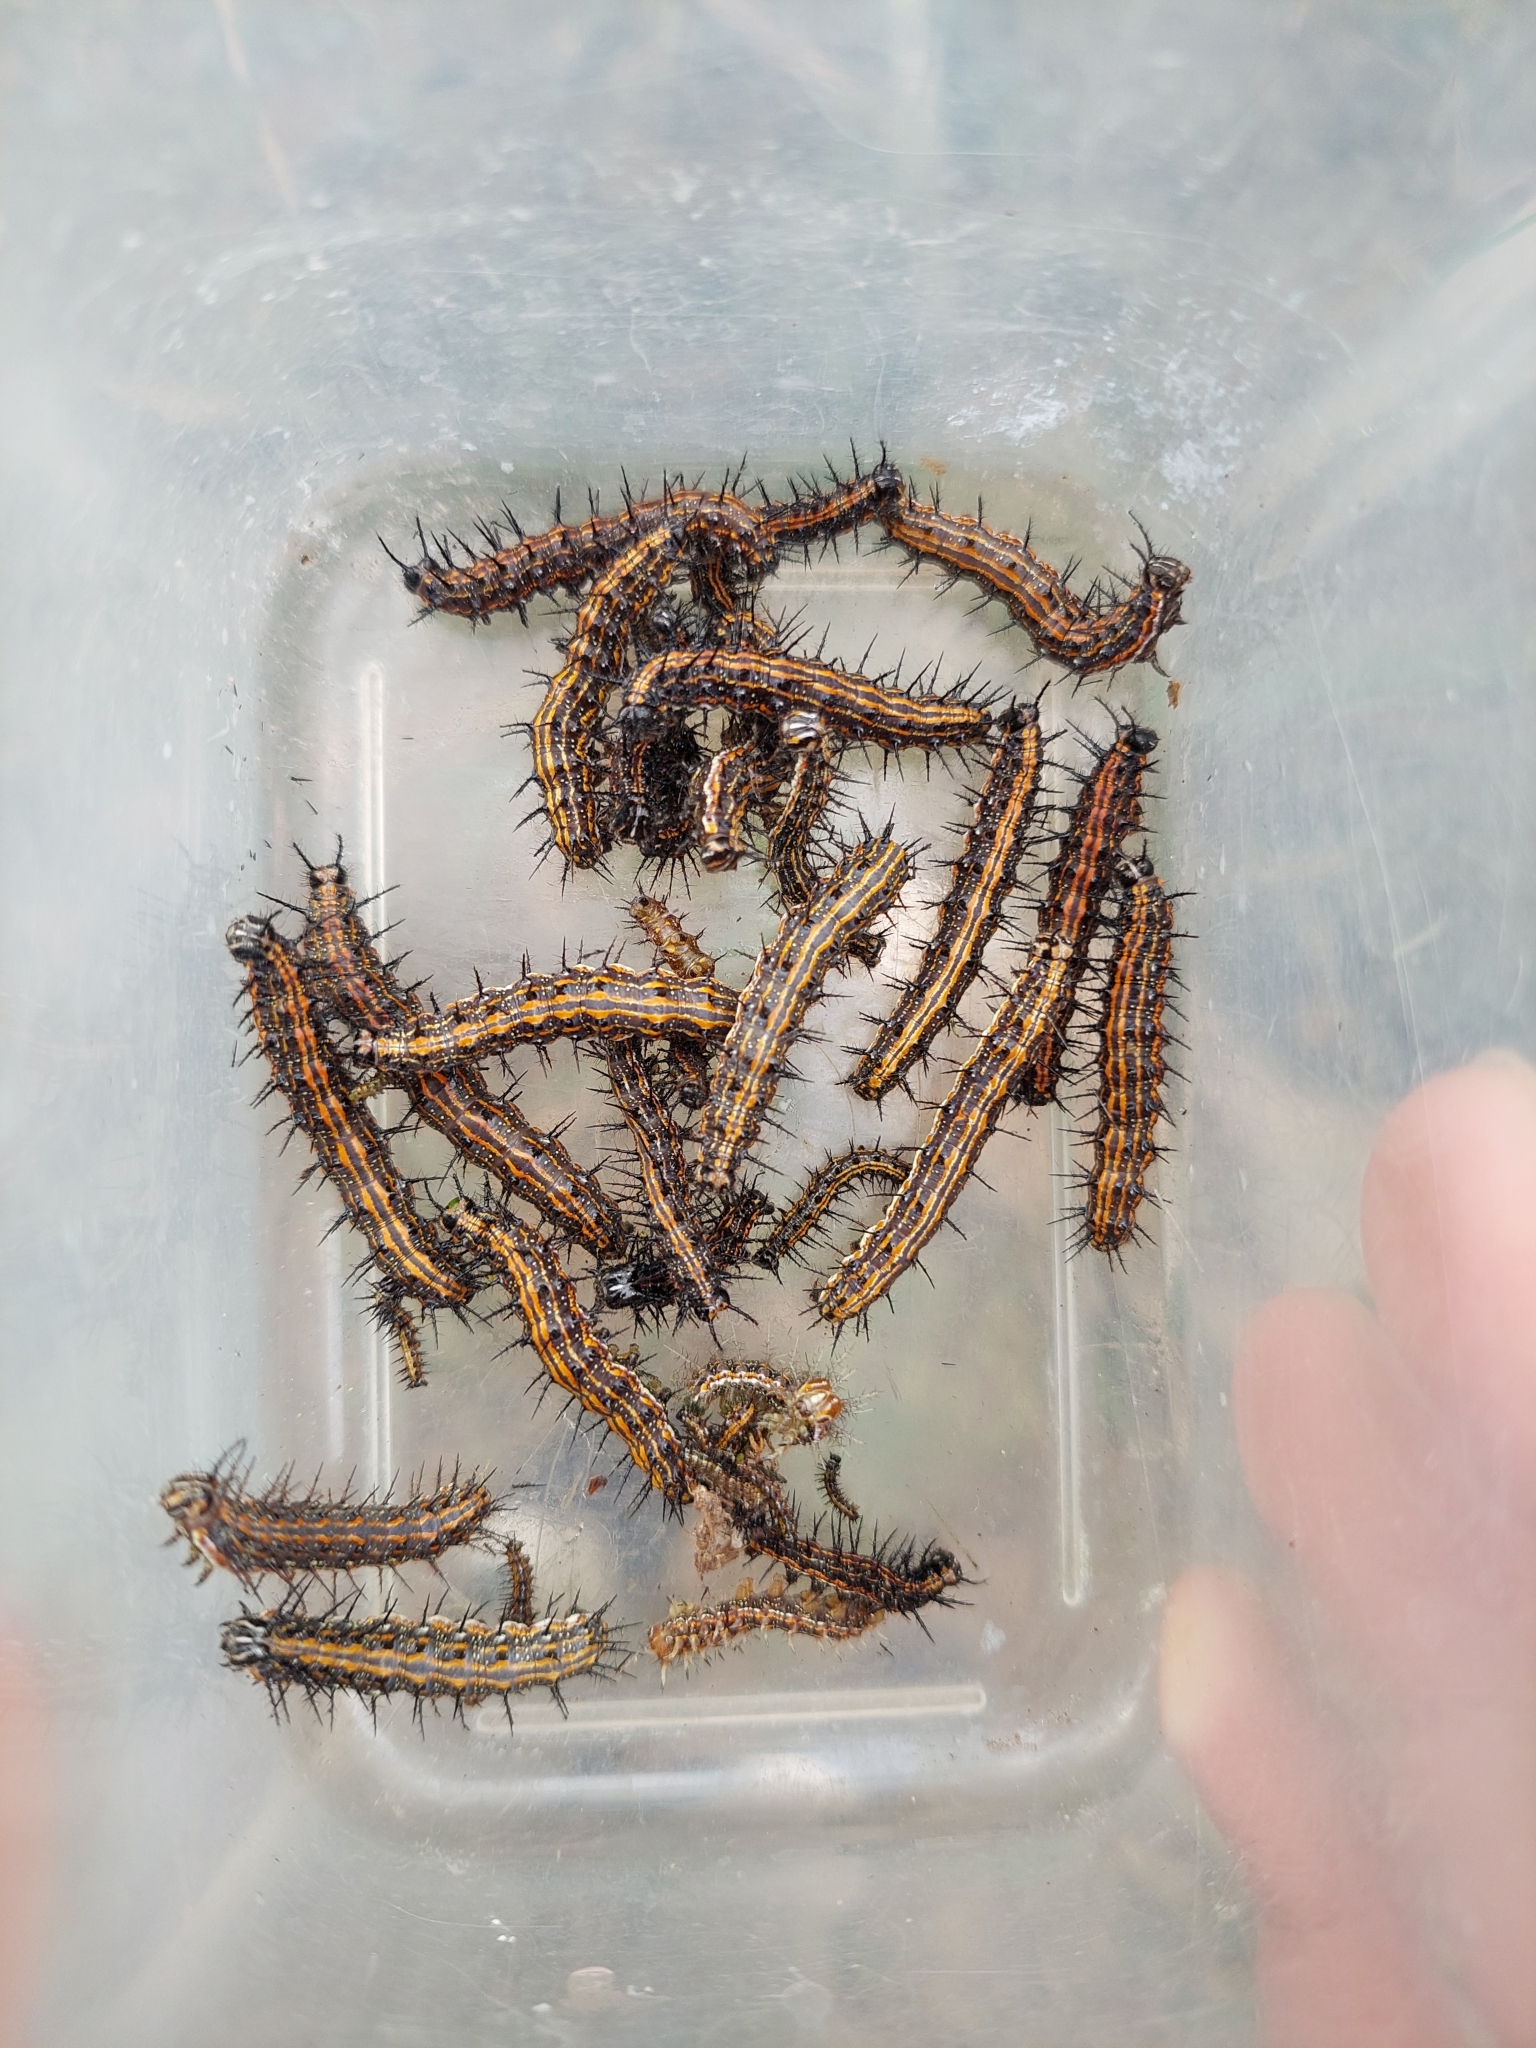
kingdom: Animalia
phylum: Arthropoda
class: Insecta
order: Lepidoptera
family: Nymphalidae
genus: Dione
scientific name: Dione vanillae
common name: Gulf fritillary
